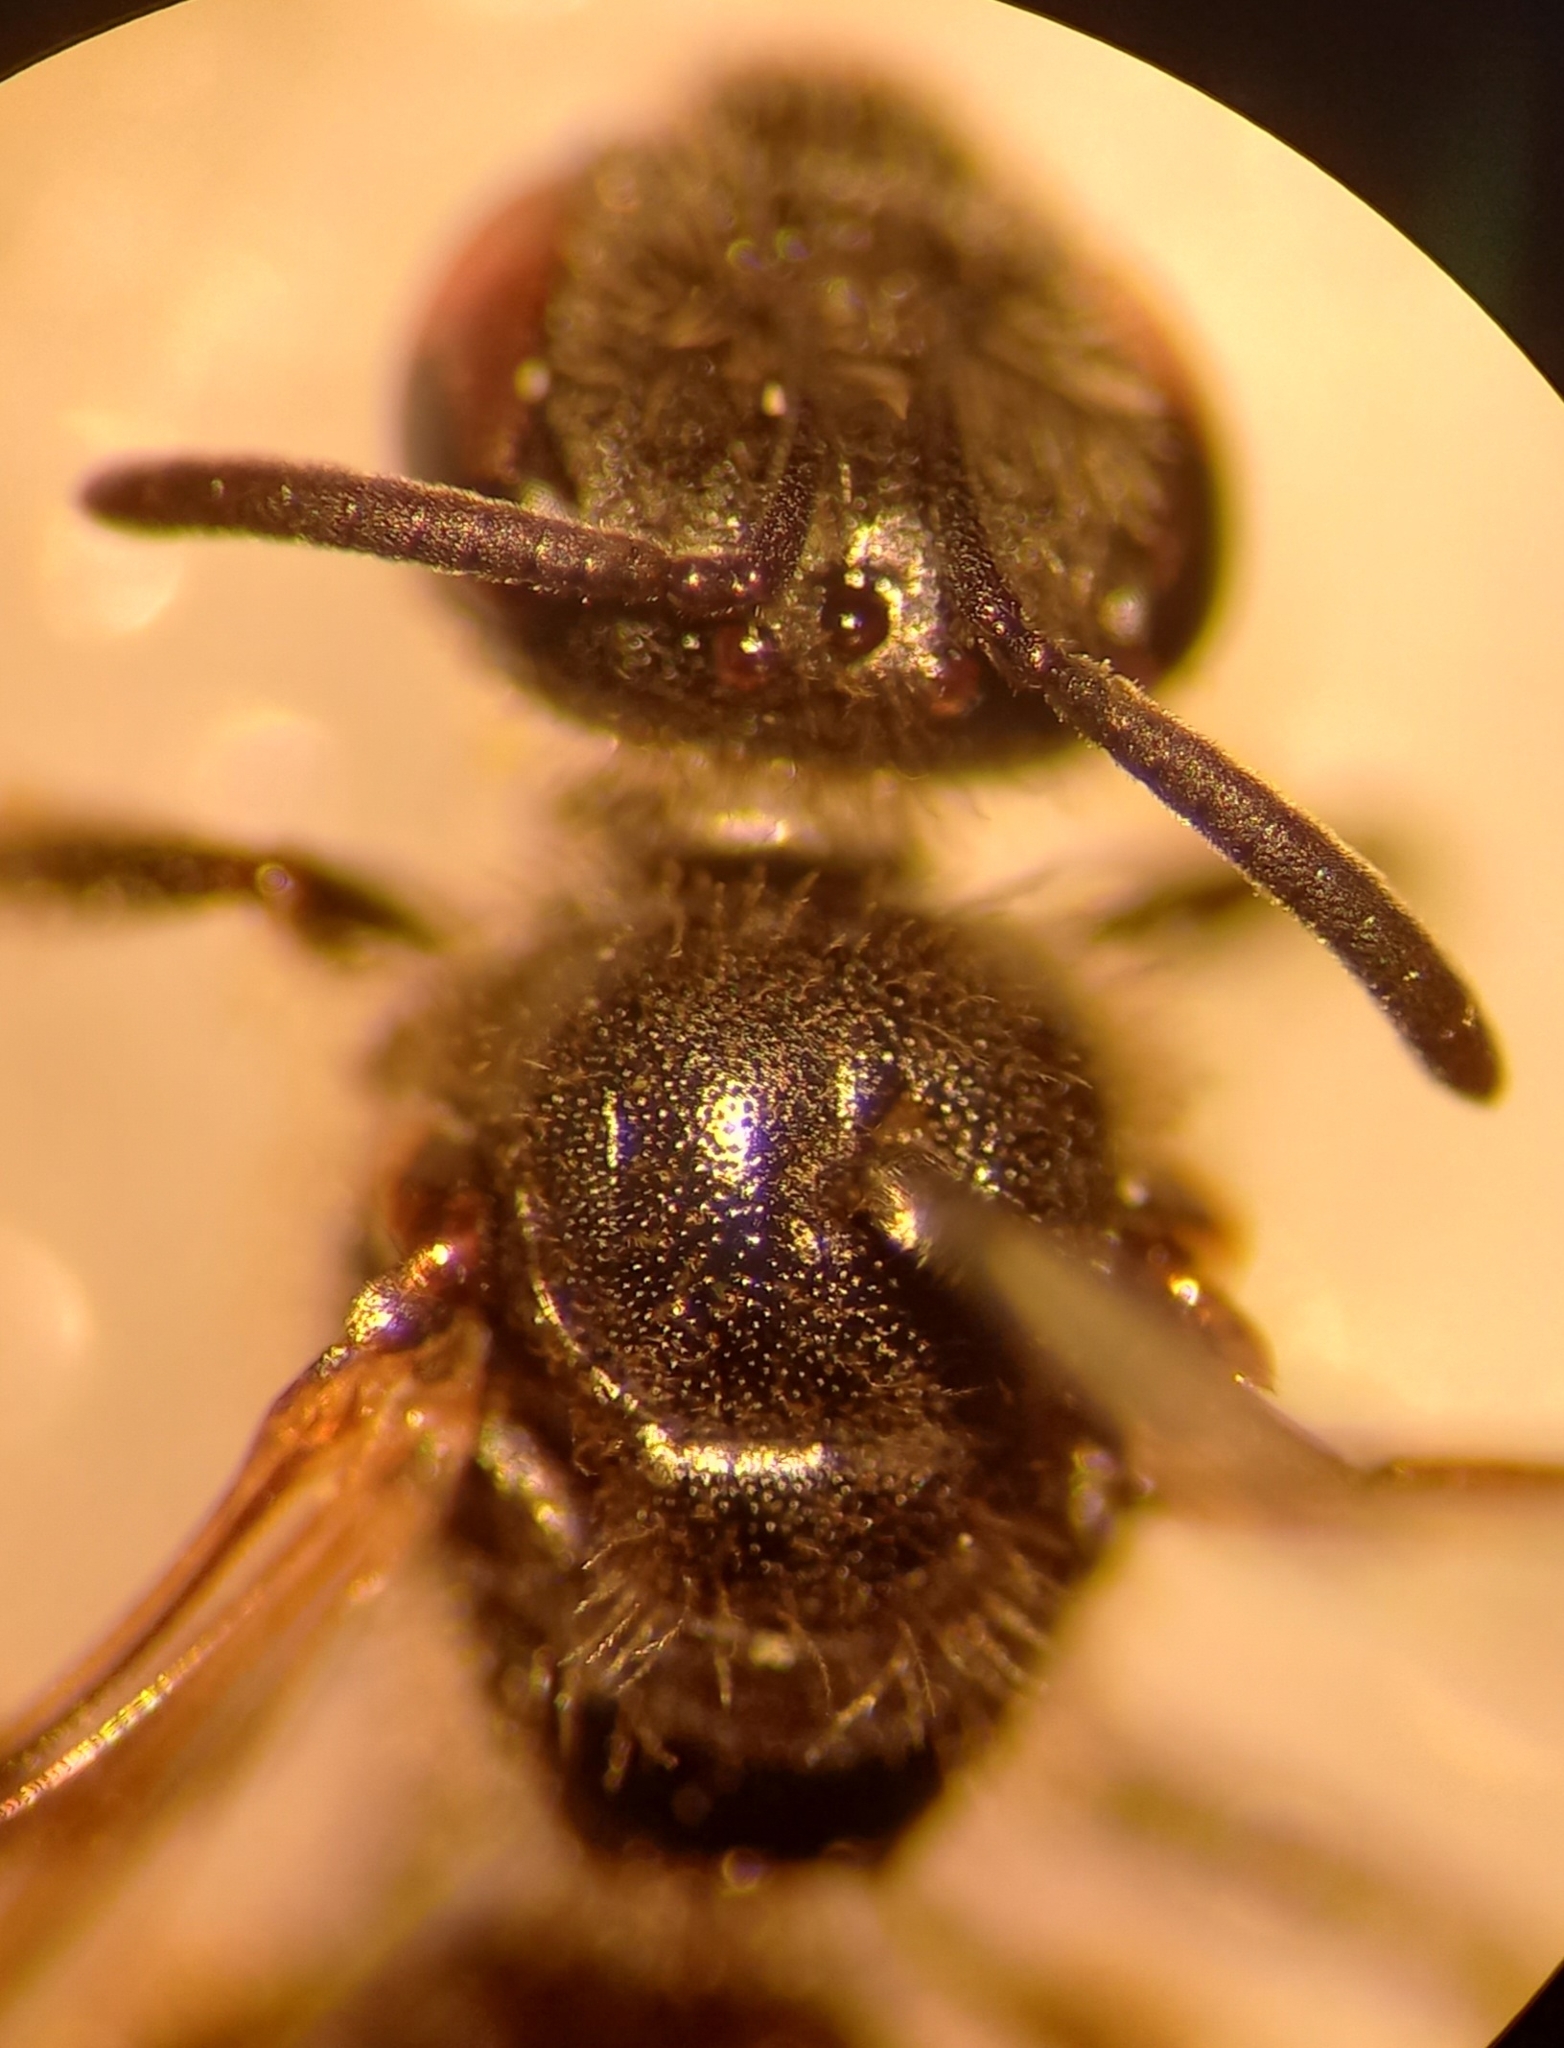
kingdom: Animalia
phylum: Arthropoda
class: Insecta
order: Hymenoptera
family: Halictidae
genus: Lasioglossum
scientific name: Lasioglossum laticeps
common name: Broad-faced furrow bee
